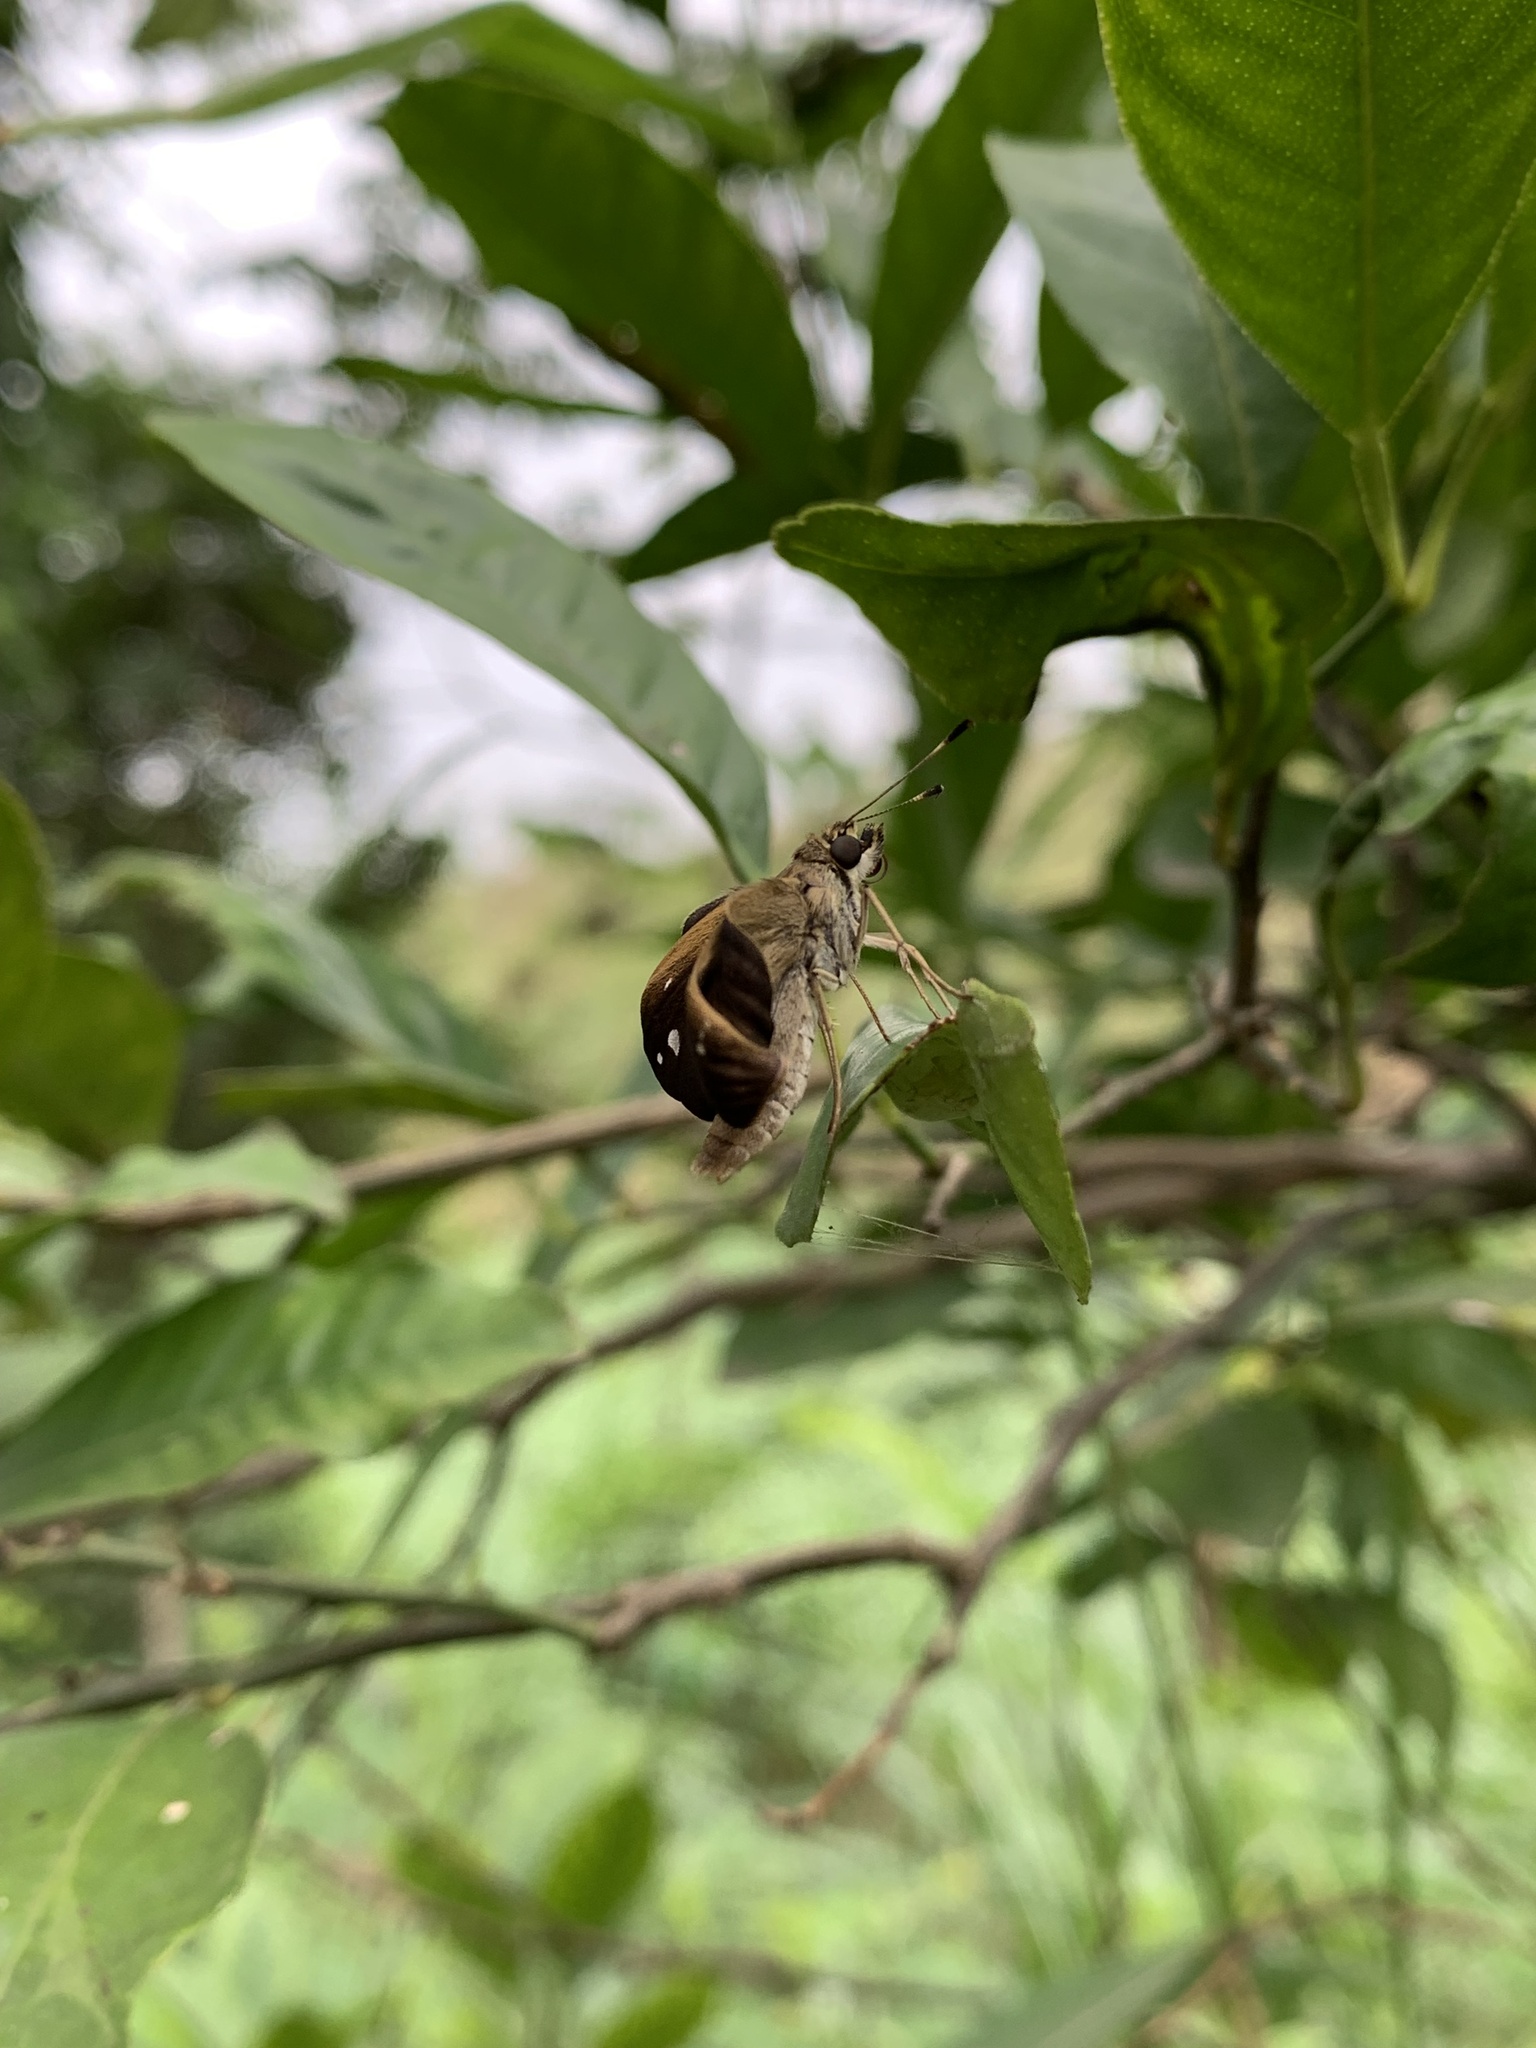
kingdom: Animalia
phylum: Arthropoda
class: Insecta
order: Lepidoptera
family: Hesperiidae
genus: Cymaenes
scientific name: Cymaenes tripunctus
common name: Dingy dotted skipper
